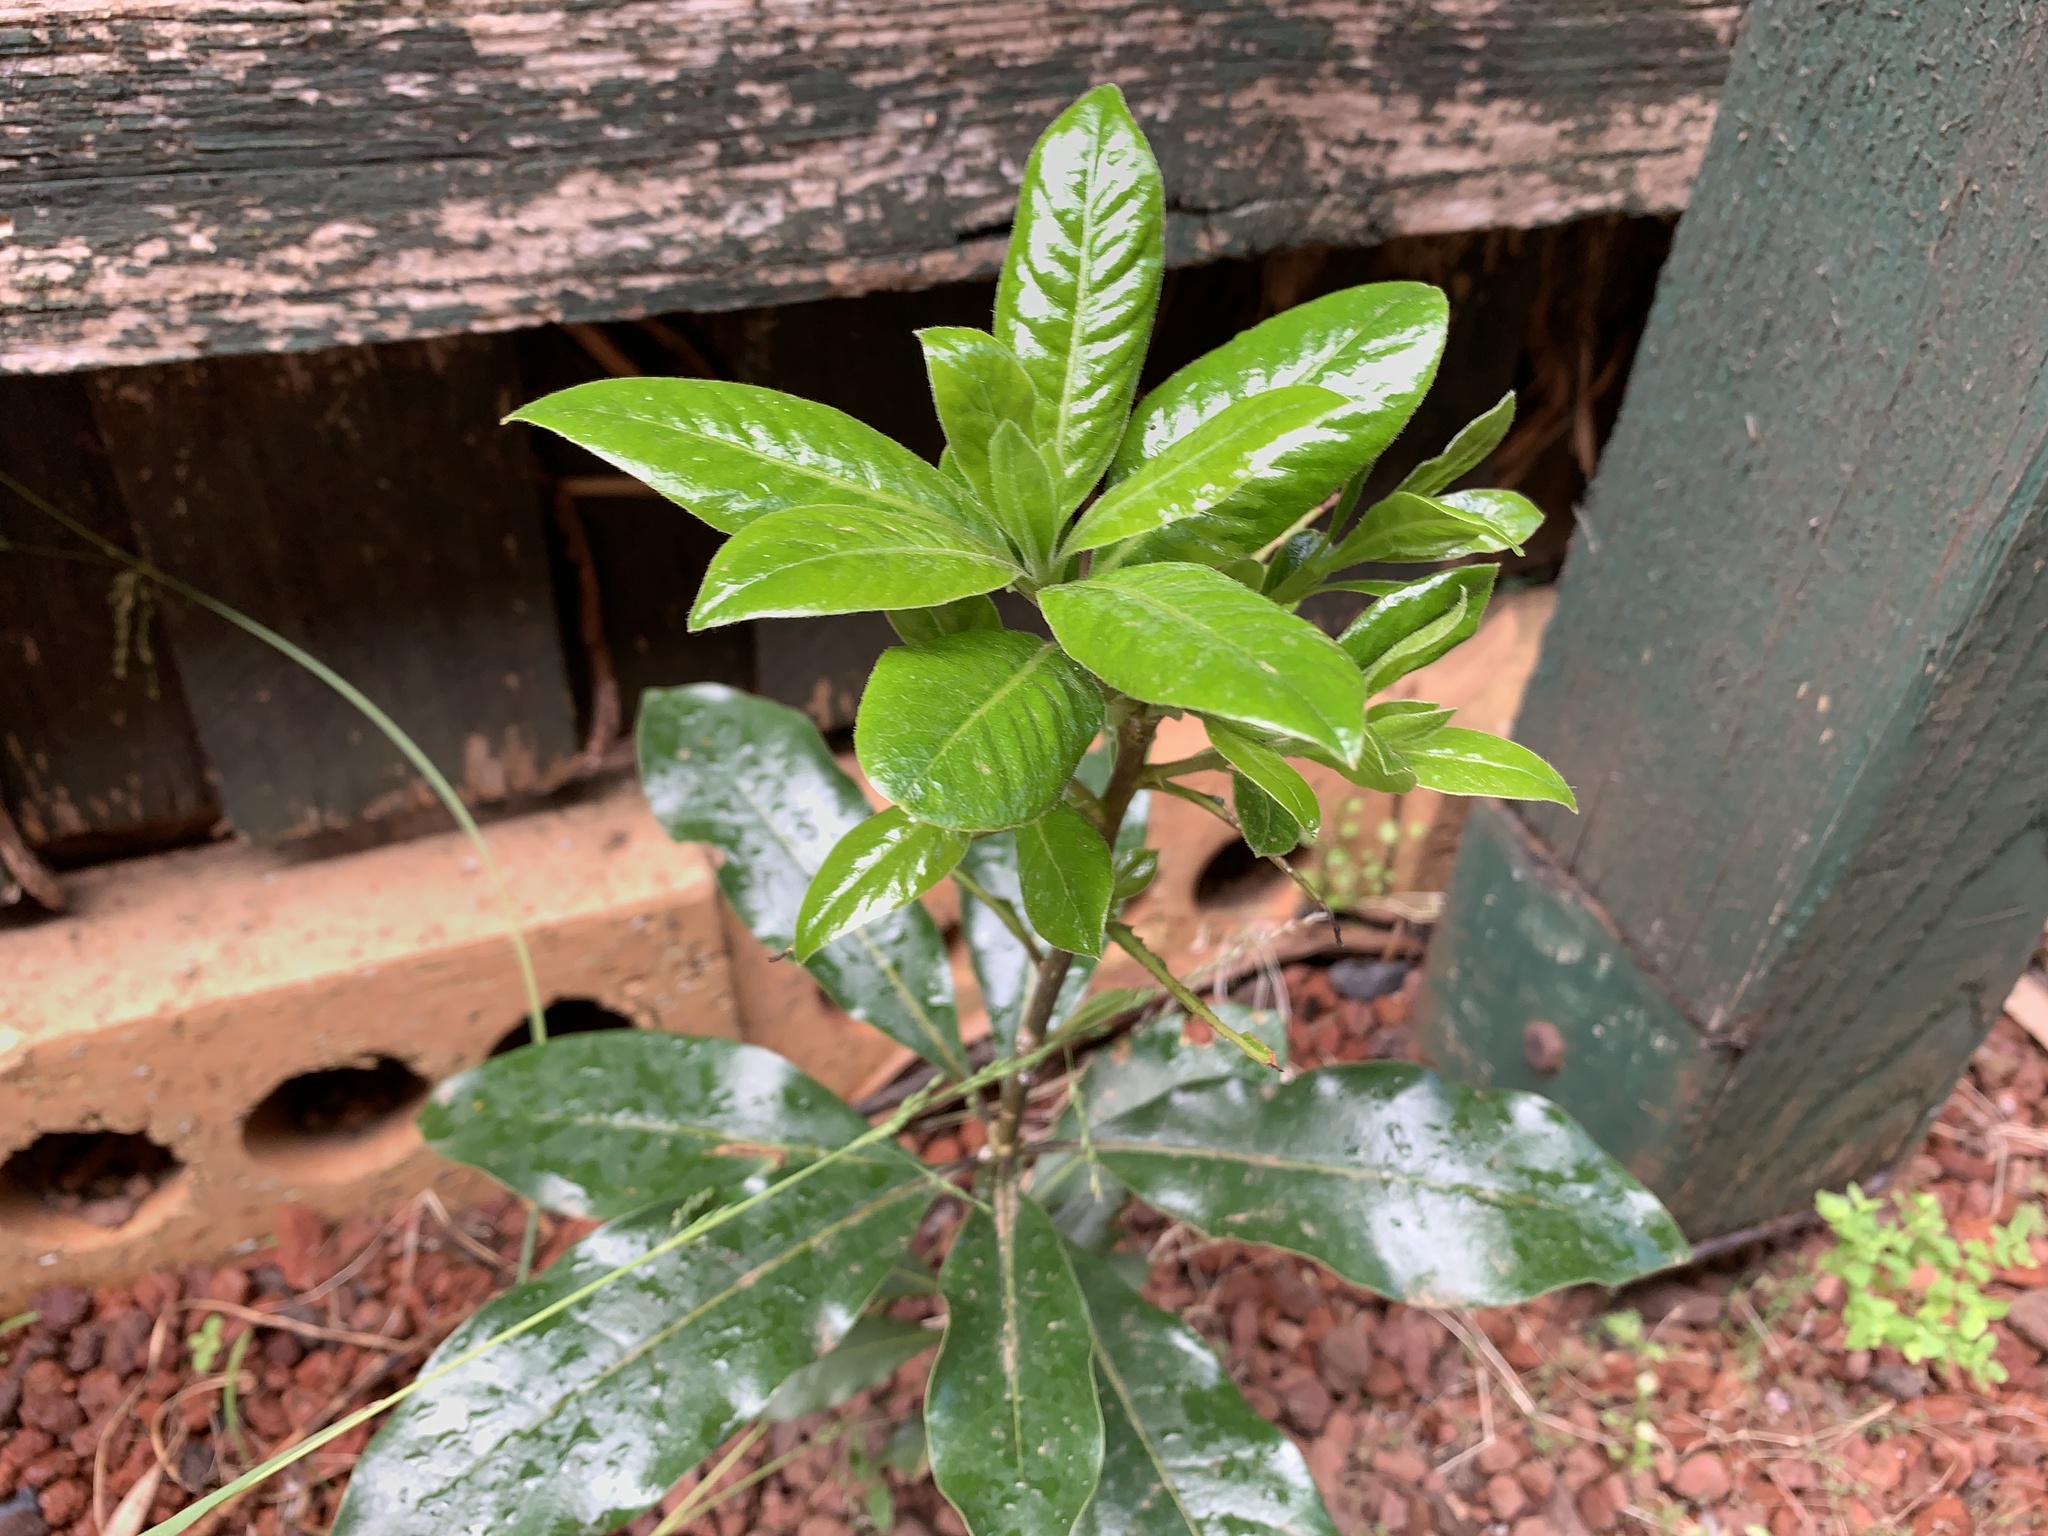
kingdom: Plantae
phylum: Tracheophyta
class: Magnoliopsida
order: Apiales
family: Pittosporaceae
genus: Pittosporum
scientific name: Pittosporum undulatum
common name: Australian cheesewood
